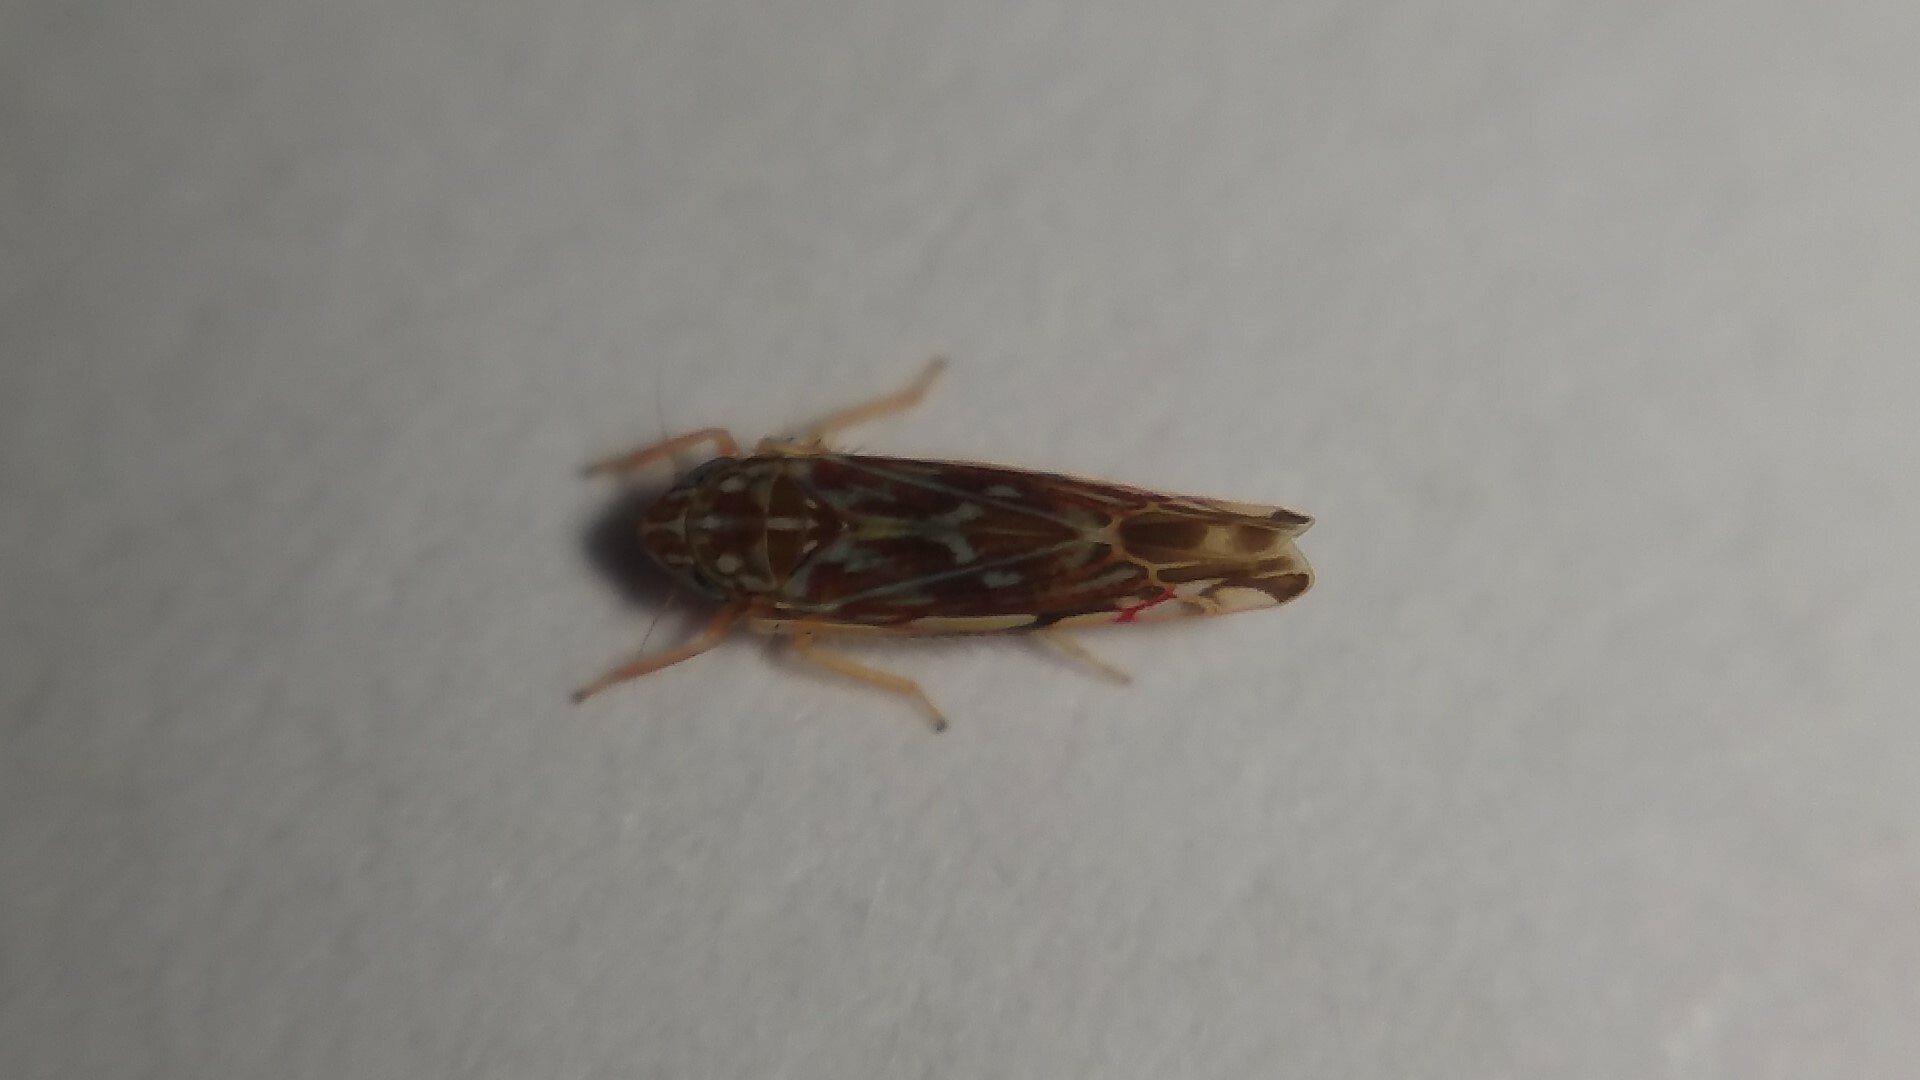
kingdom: Animalia
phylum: Arthropoda
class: Insecta
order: Hemiptera
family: Cicadellidae
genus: Erasmoneura
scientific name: Erasmoneura vulnerata
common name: The wounded leafhopper
